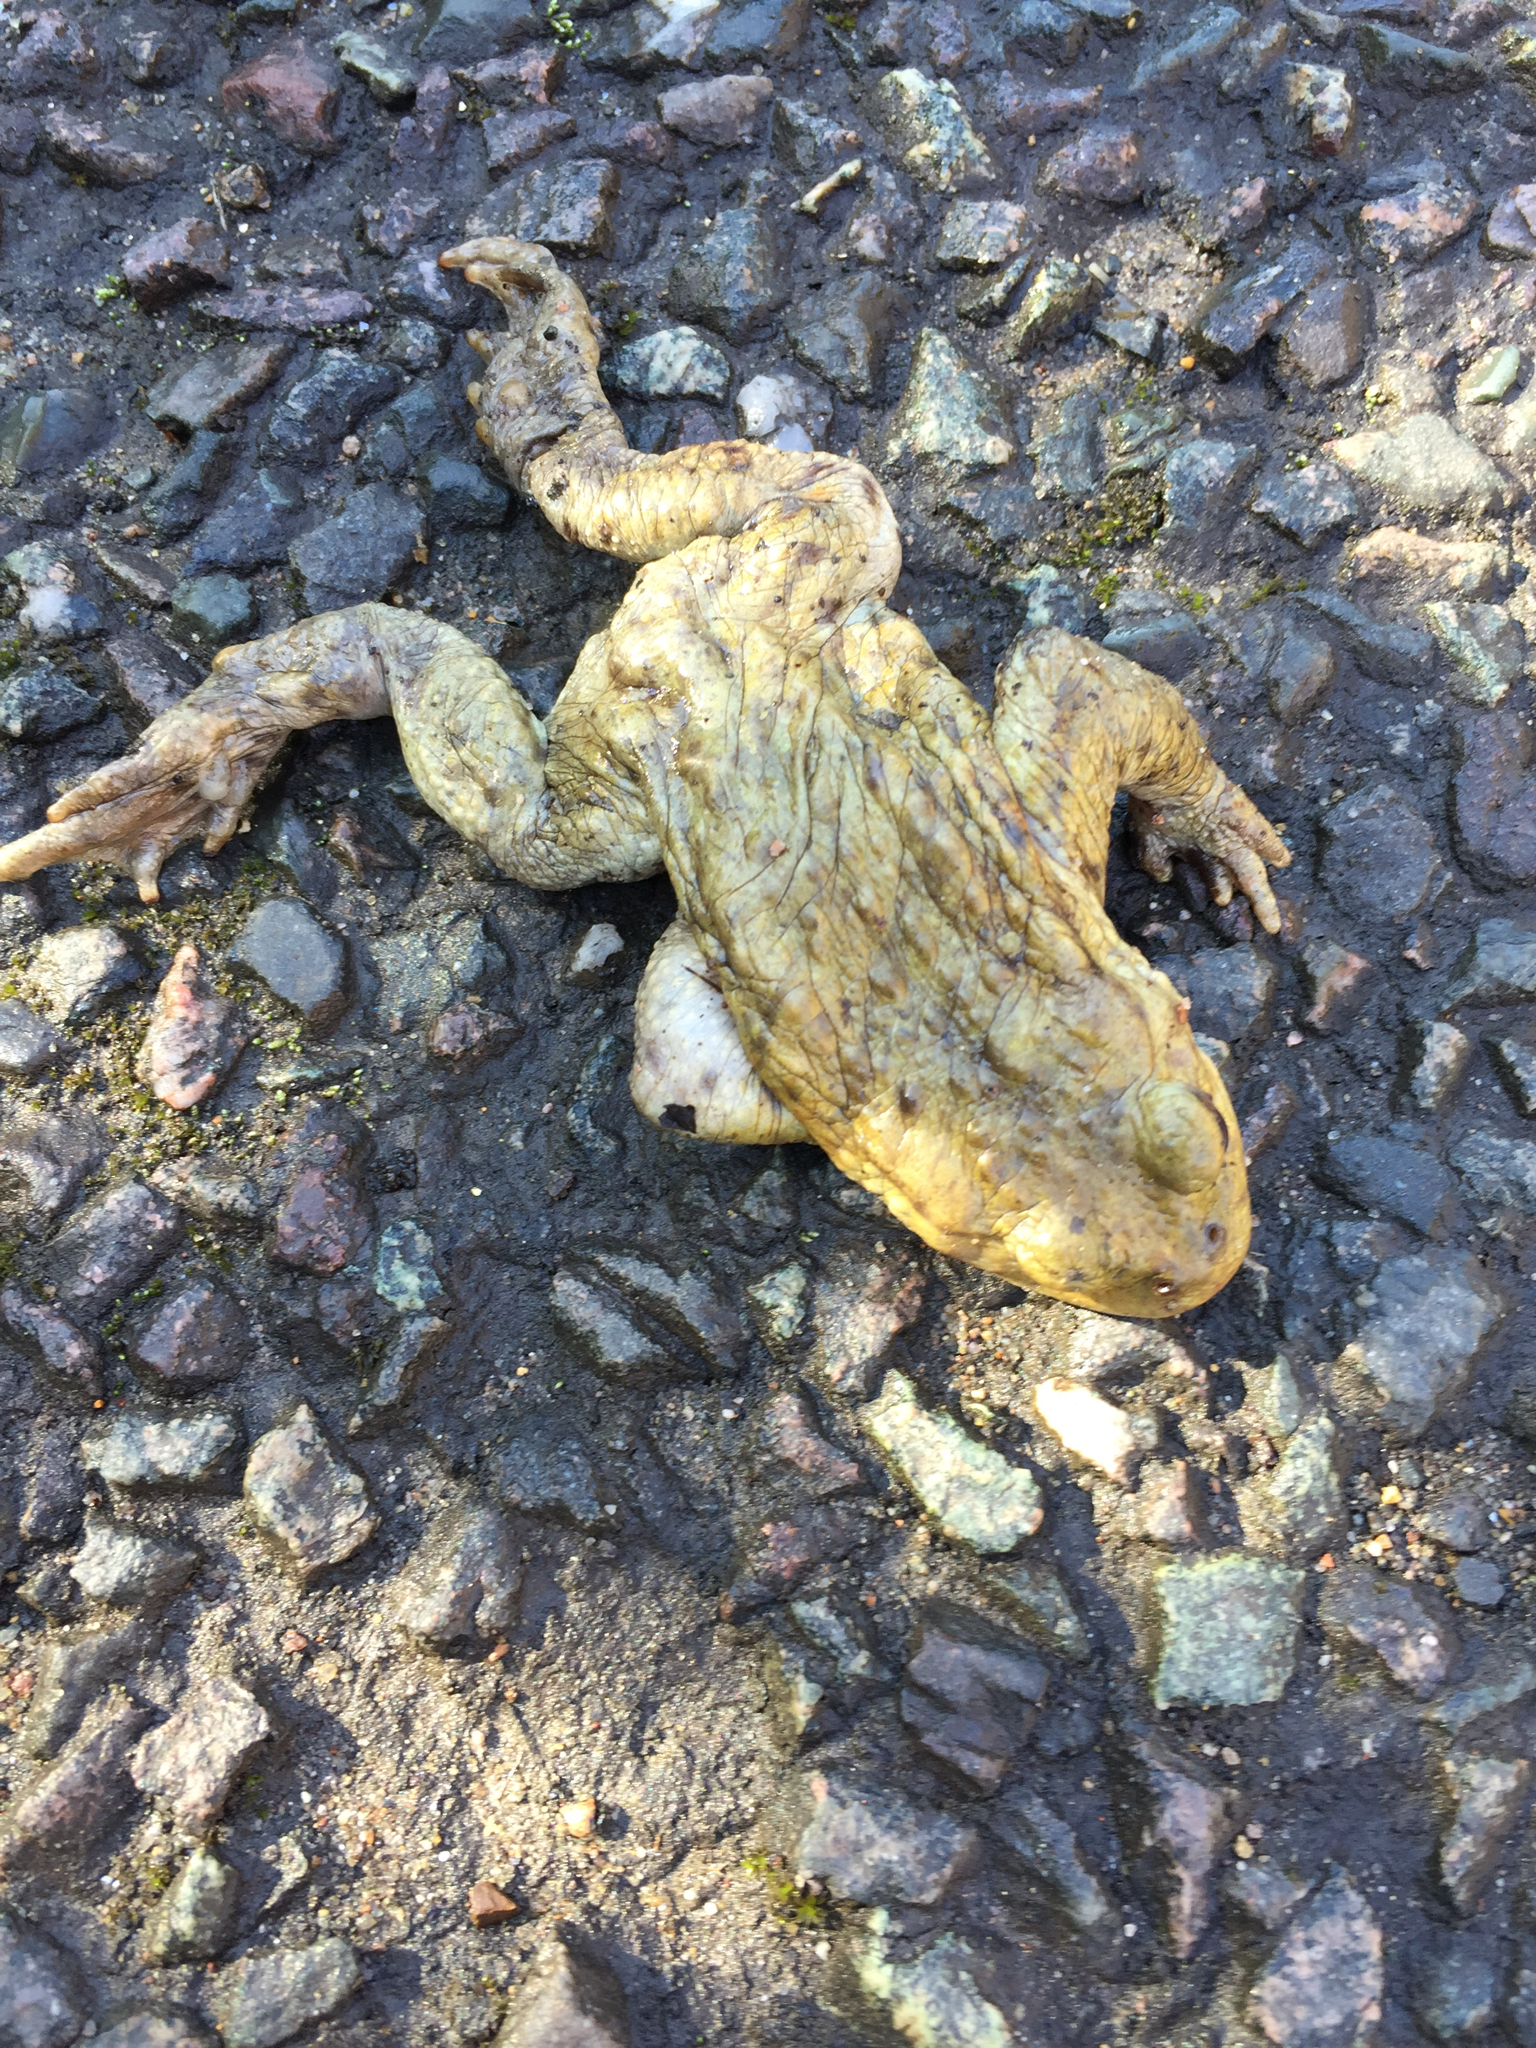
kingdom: Animalia
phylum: Chordata
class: Amphibia
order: Anura
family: Bufonidae
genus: Bufo
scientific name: Bufo bufo
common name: Common toad
